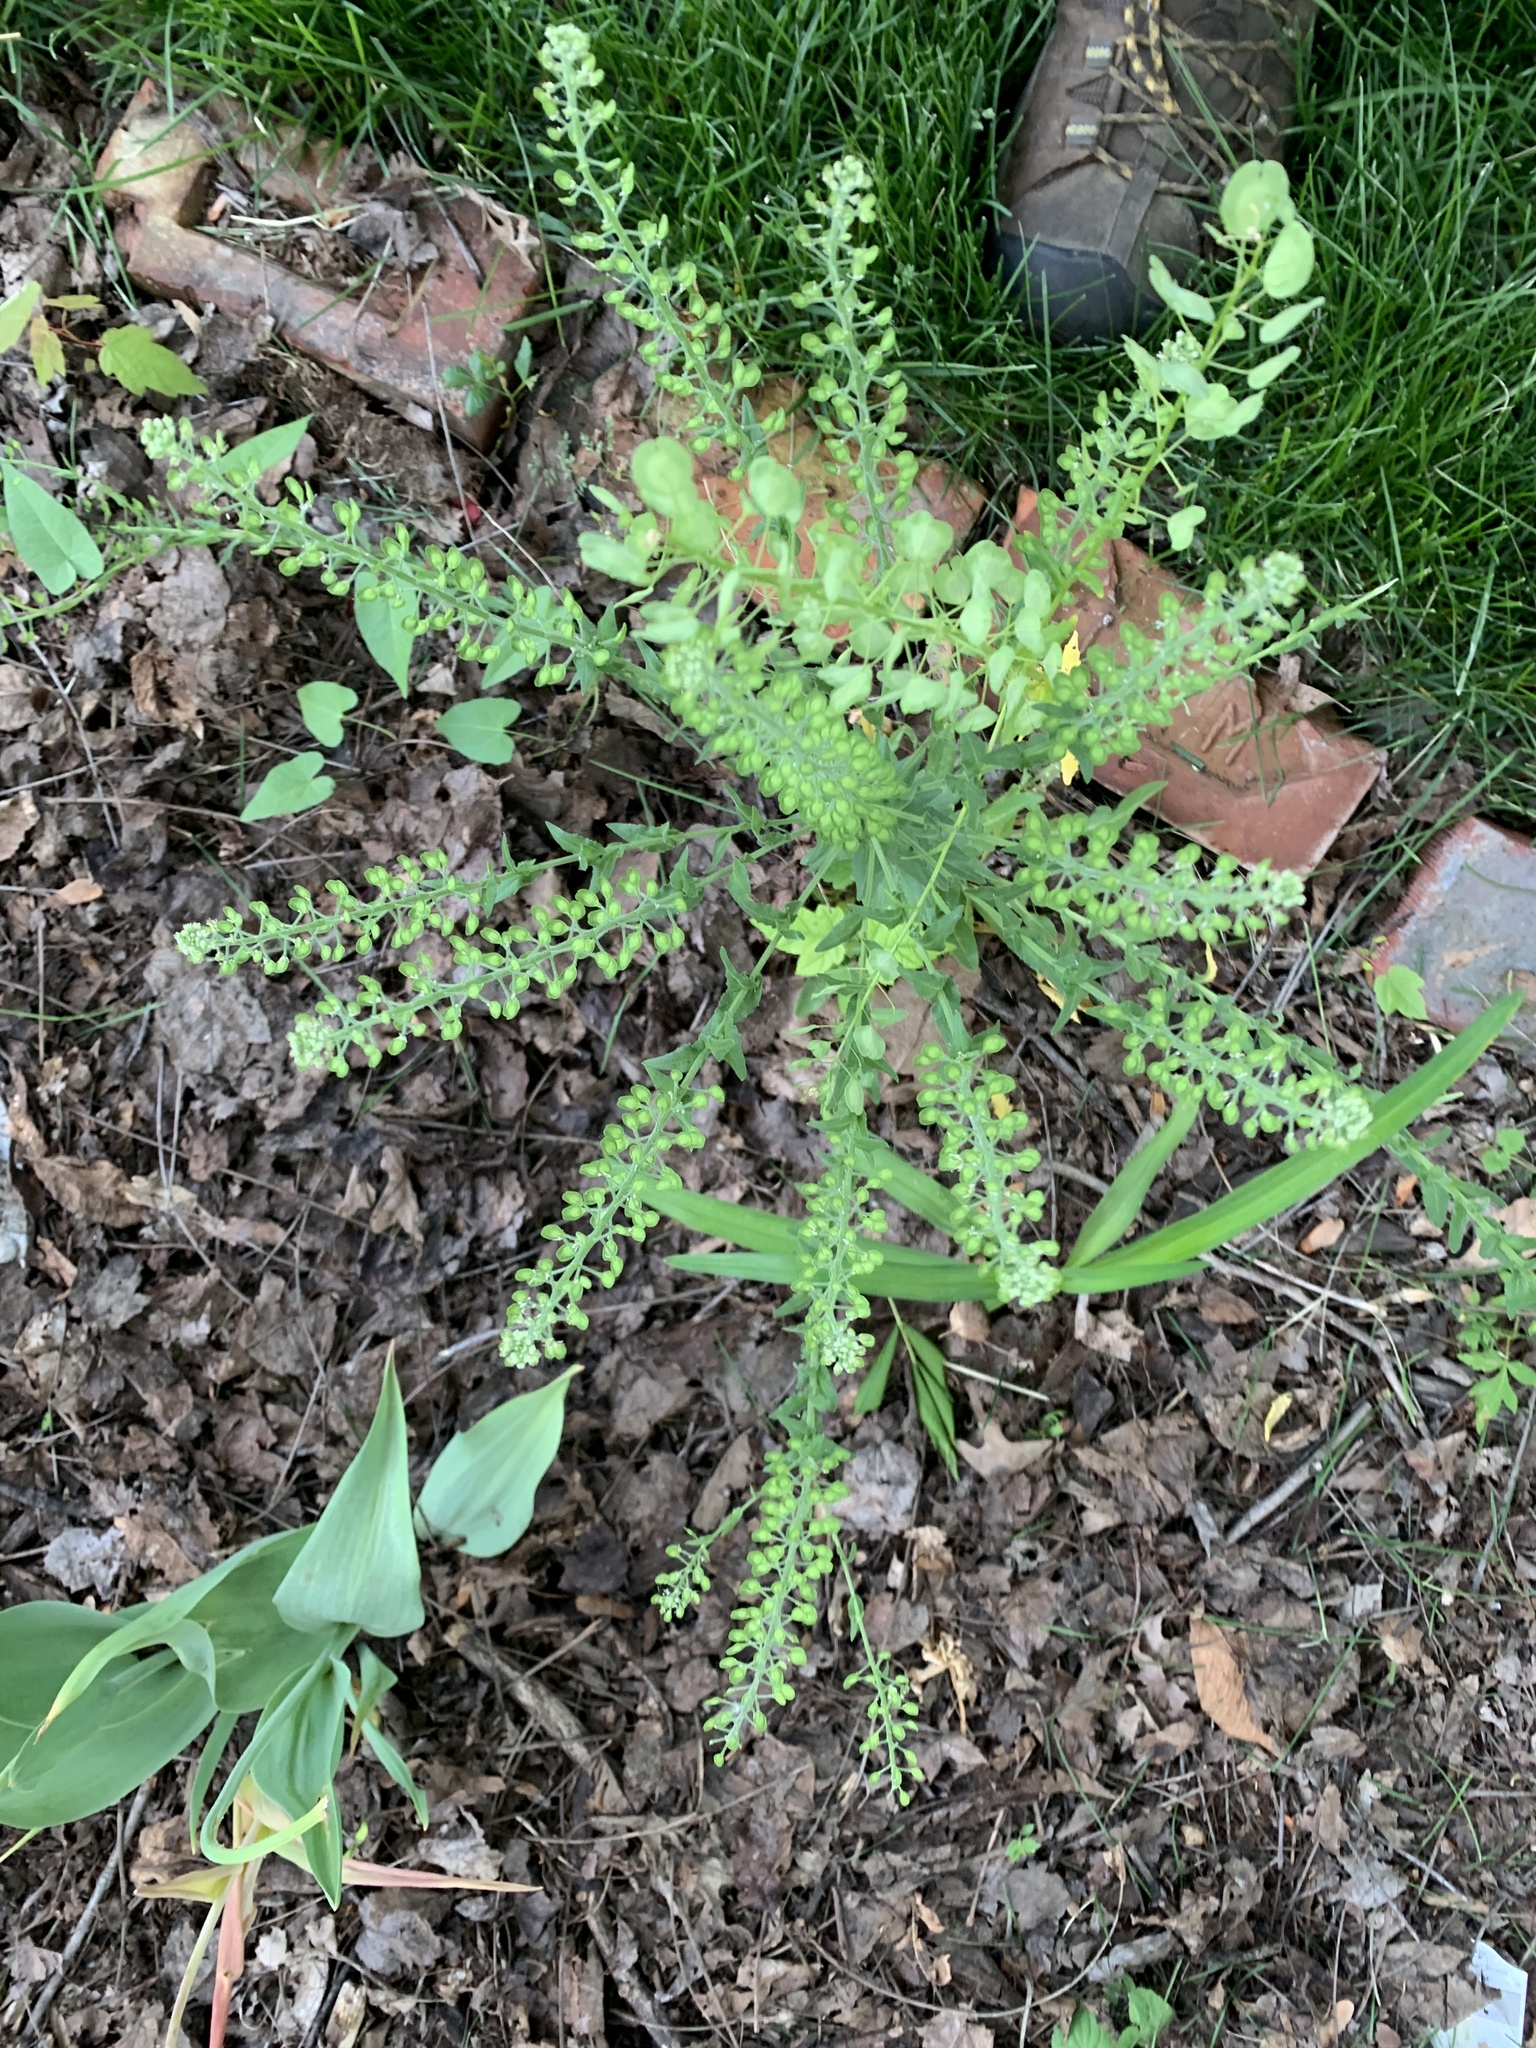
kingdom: Plantae
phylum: Tracheophyta
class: Magnoliopsida
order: Brassicales
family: Brassicaceae
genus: Lepidium
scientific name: Lepidium campestre
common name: Field pepperwort
